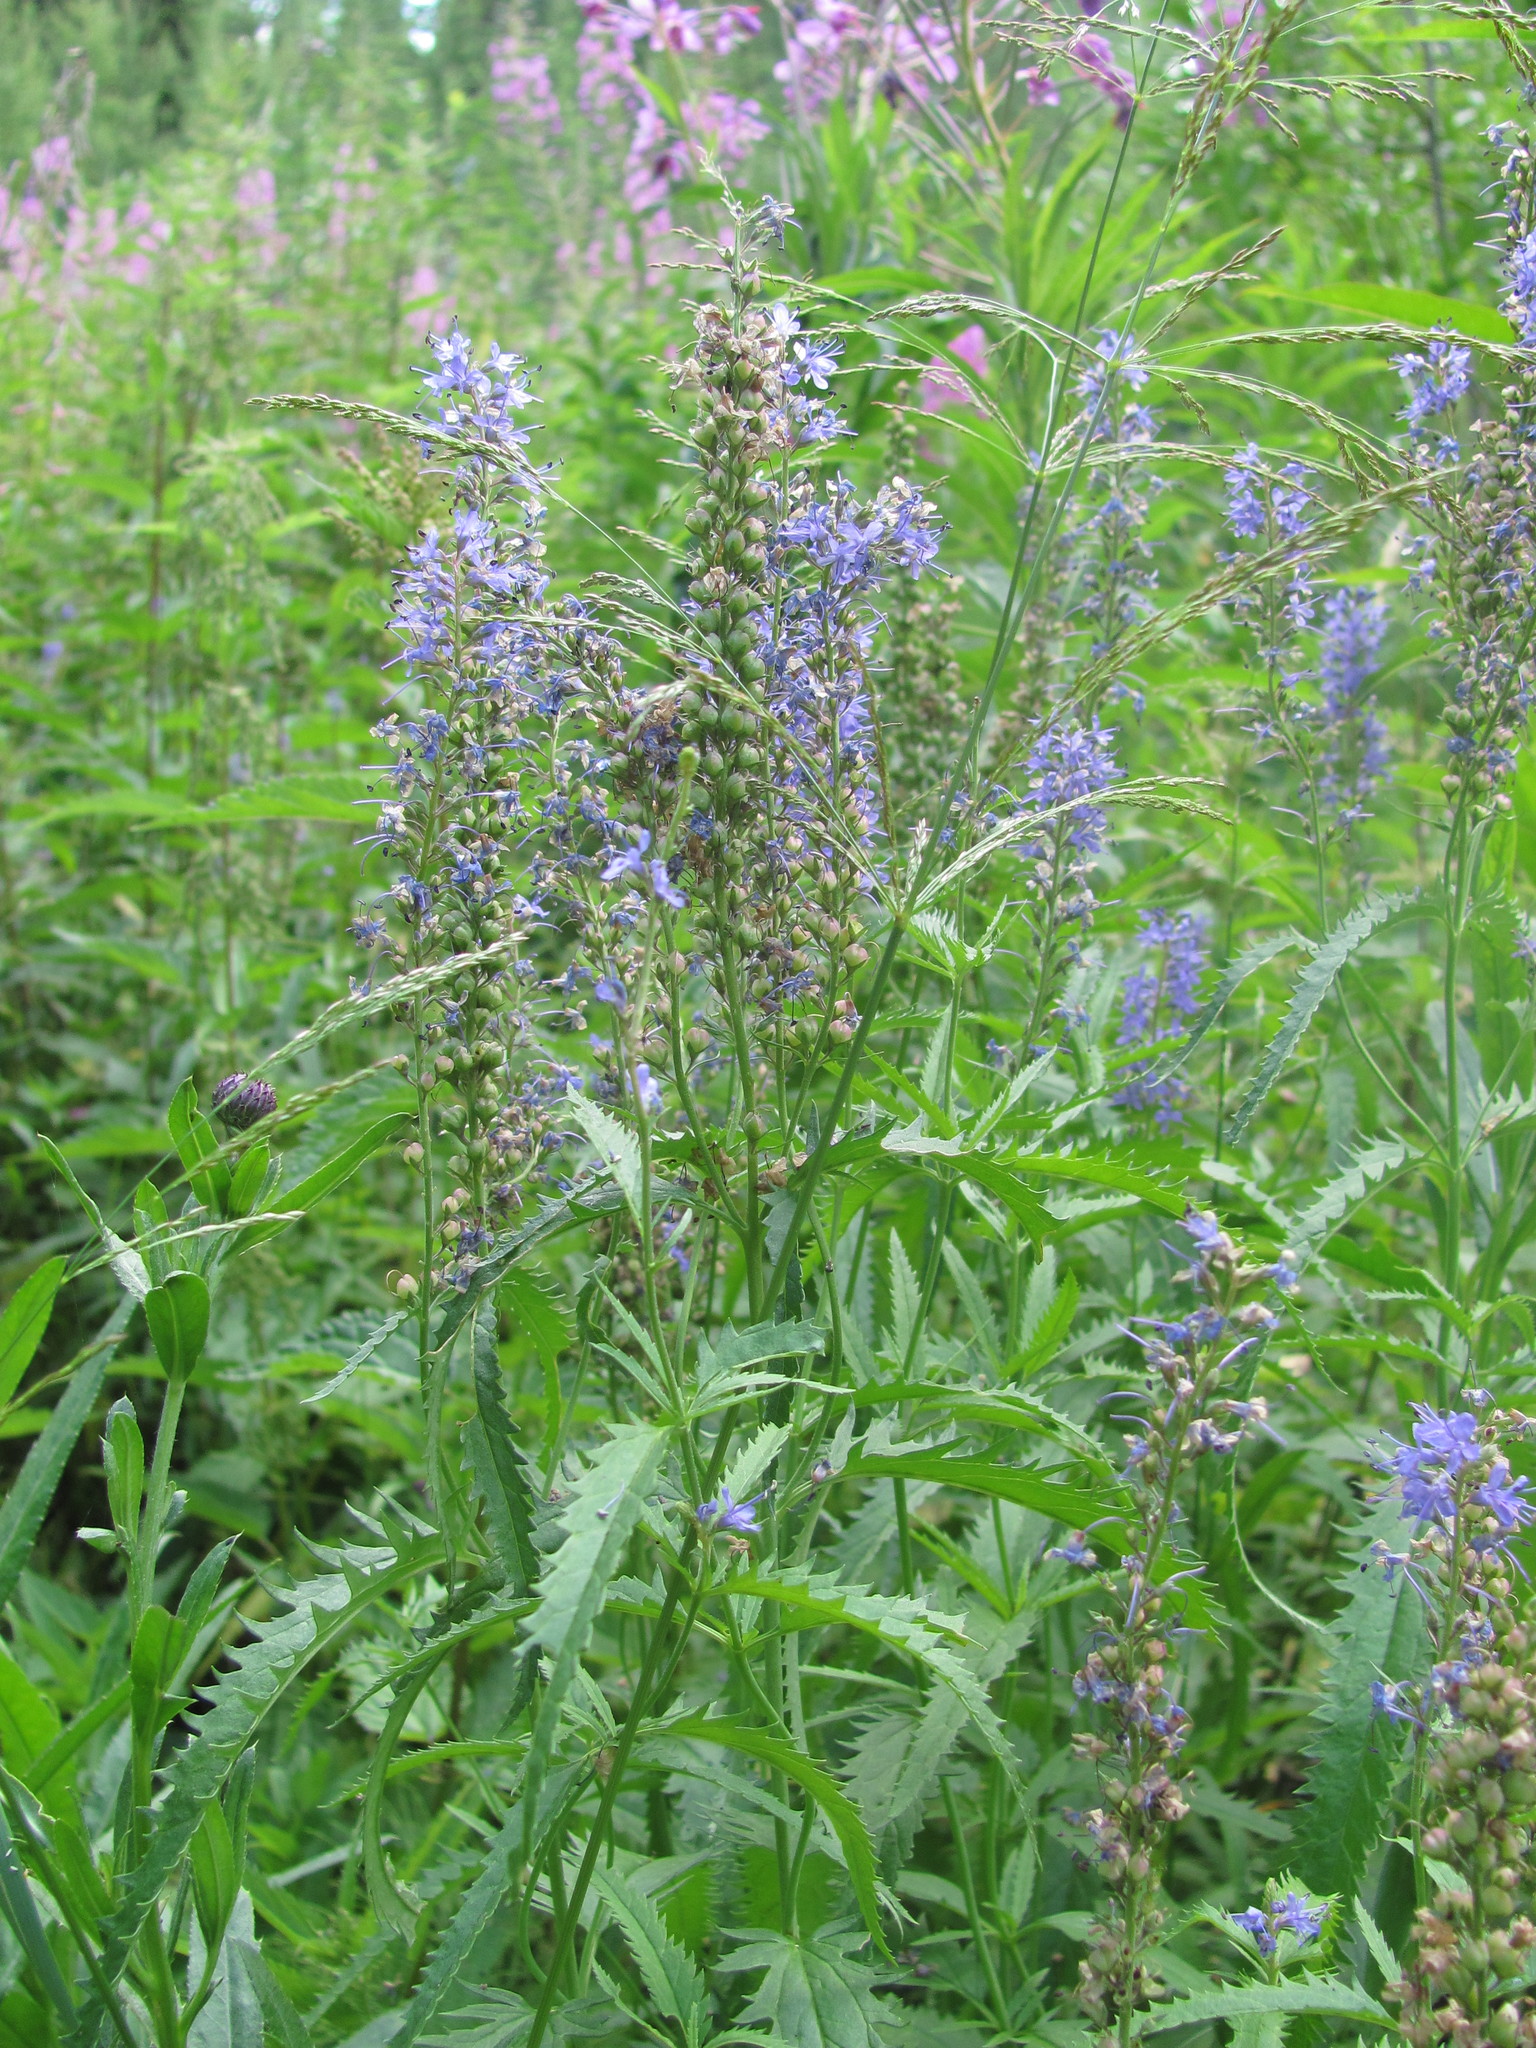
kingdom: Plantae
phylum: Tracheophyta
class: Magnoliopsida
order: Lamiales
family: Plantaginaceae
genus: Veronica
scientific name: Veronica longifolia
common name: Garden speedwell
